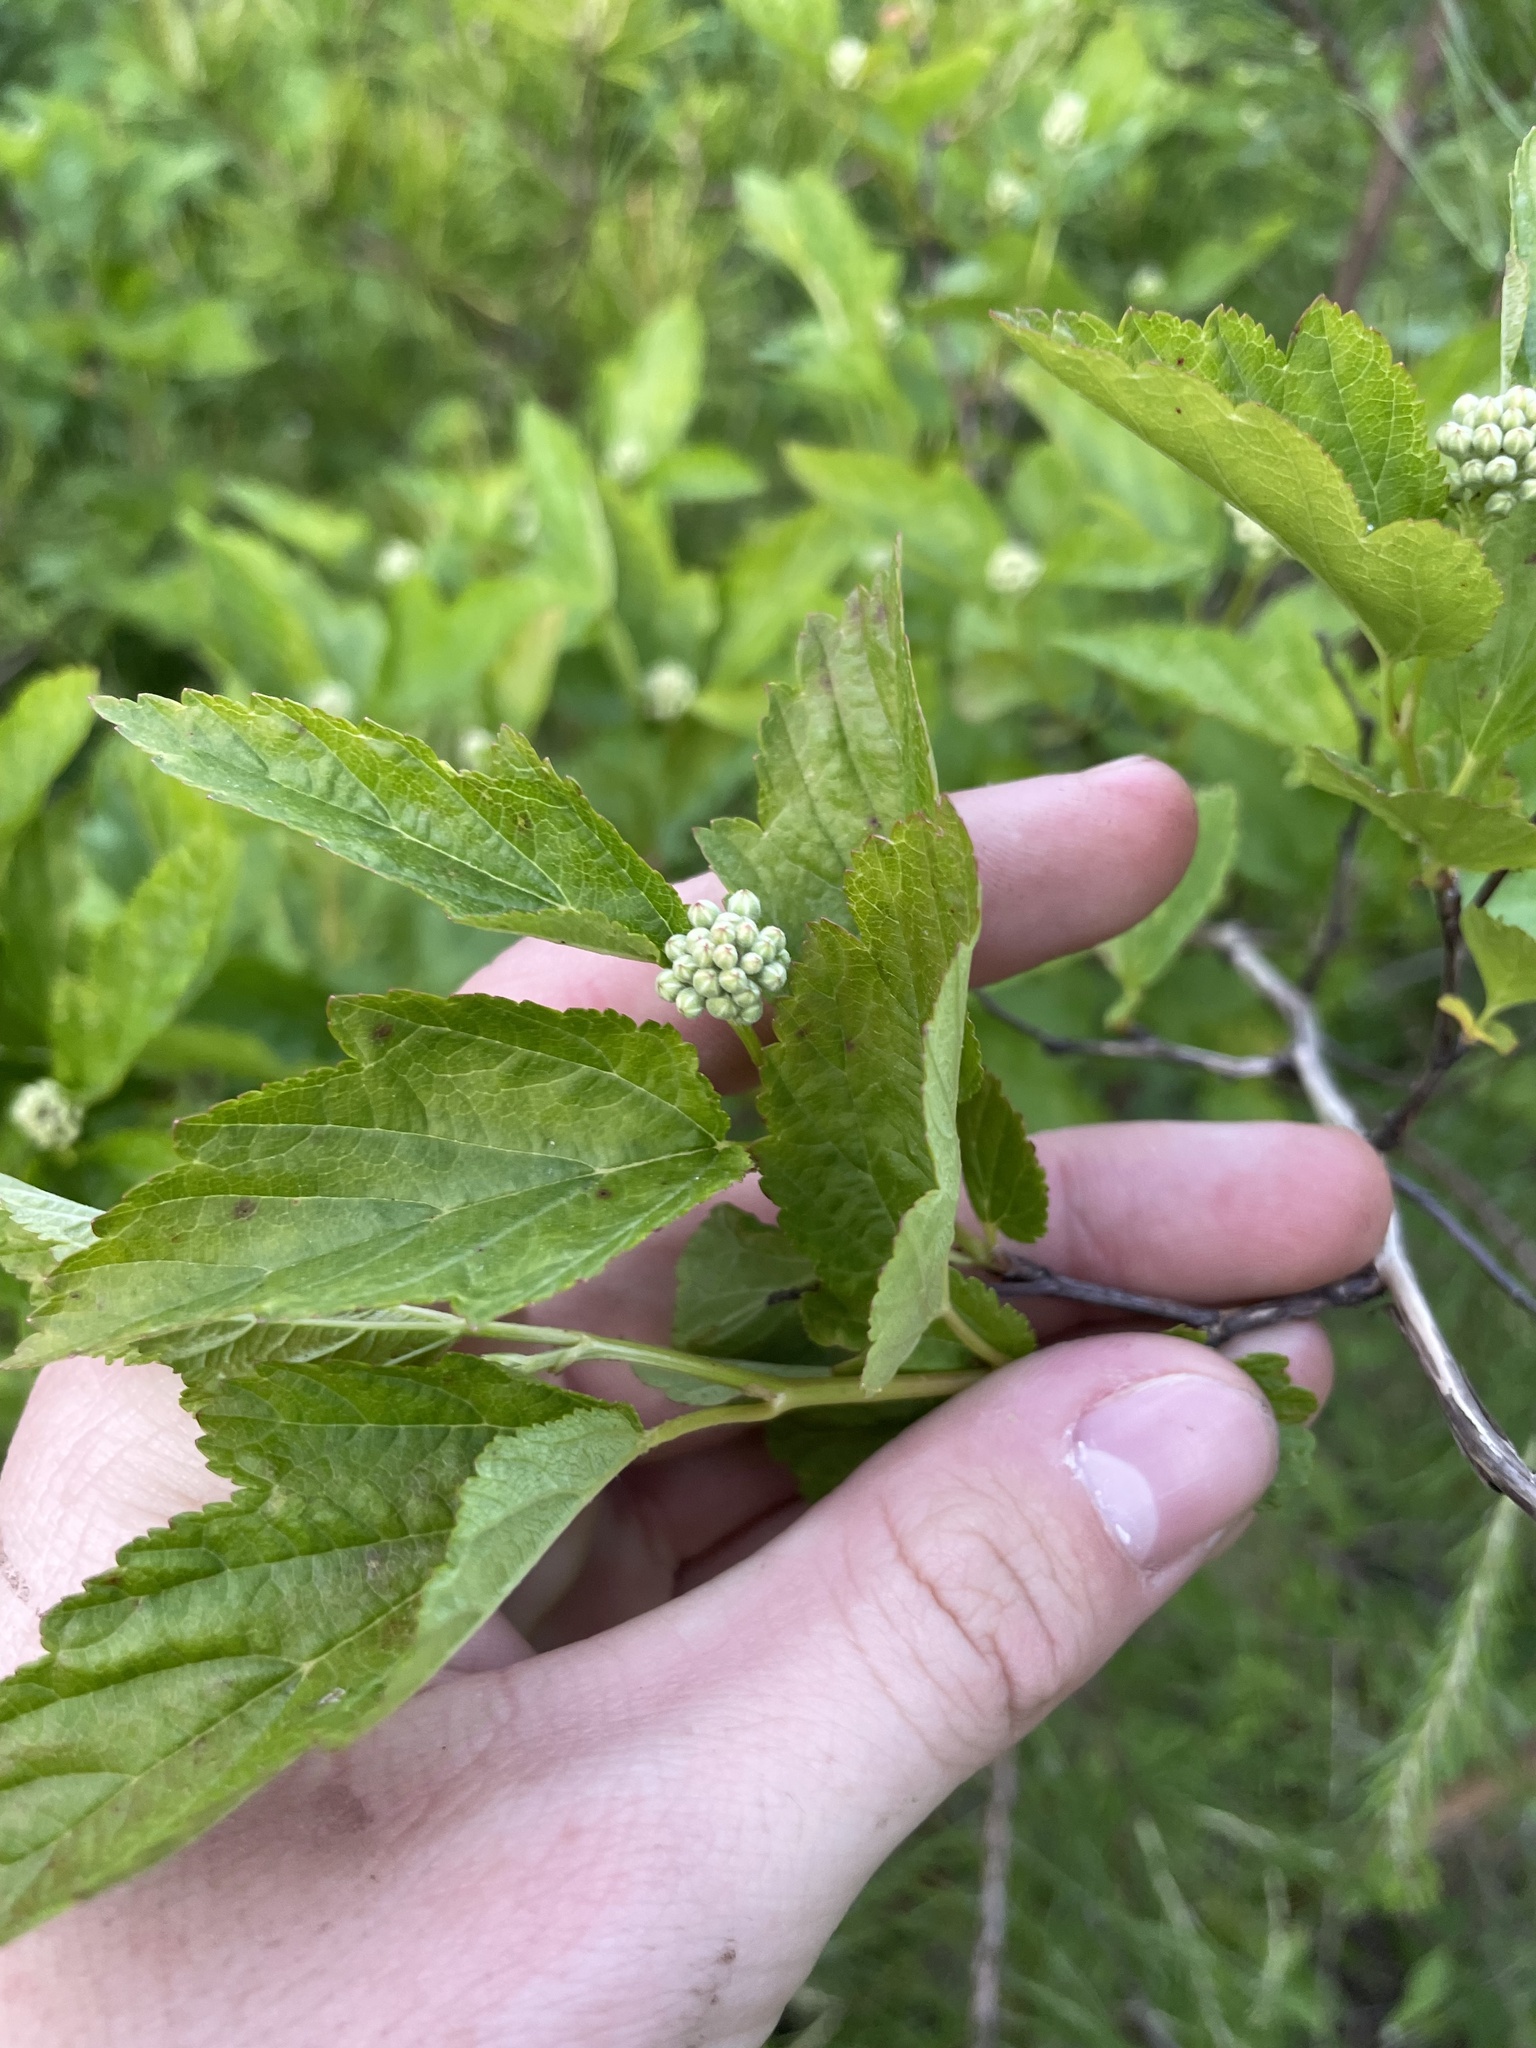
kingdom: Plantae
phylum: Tracheophyta
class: Magnoliopsida
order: Rosales
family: Rosaceae
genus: Physocarpus
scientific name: Physocarpus opulifolius
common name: Ninebark
